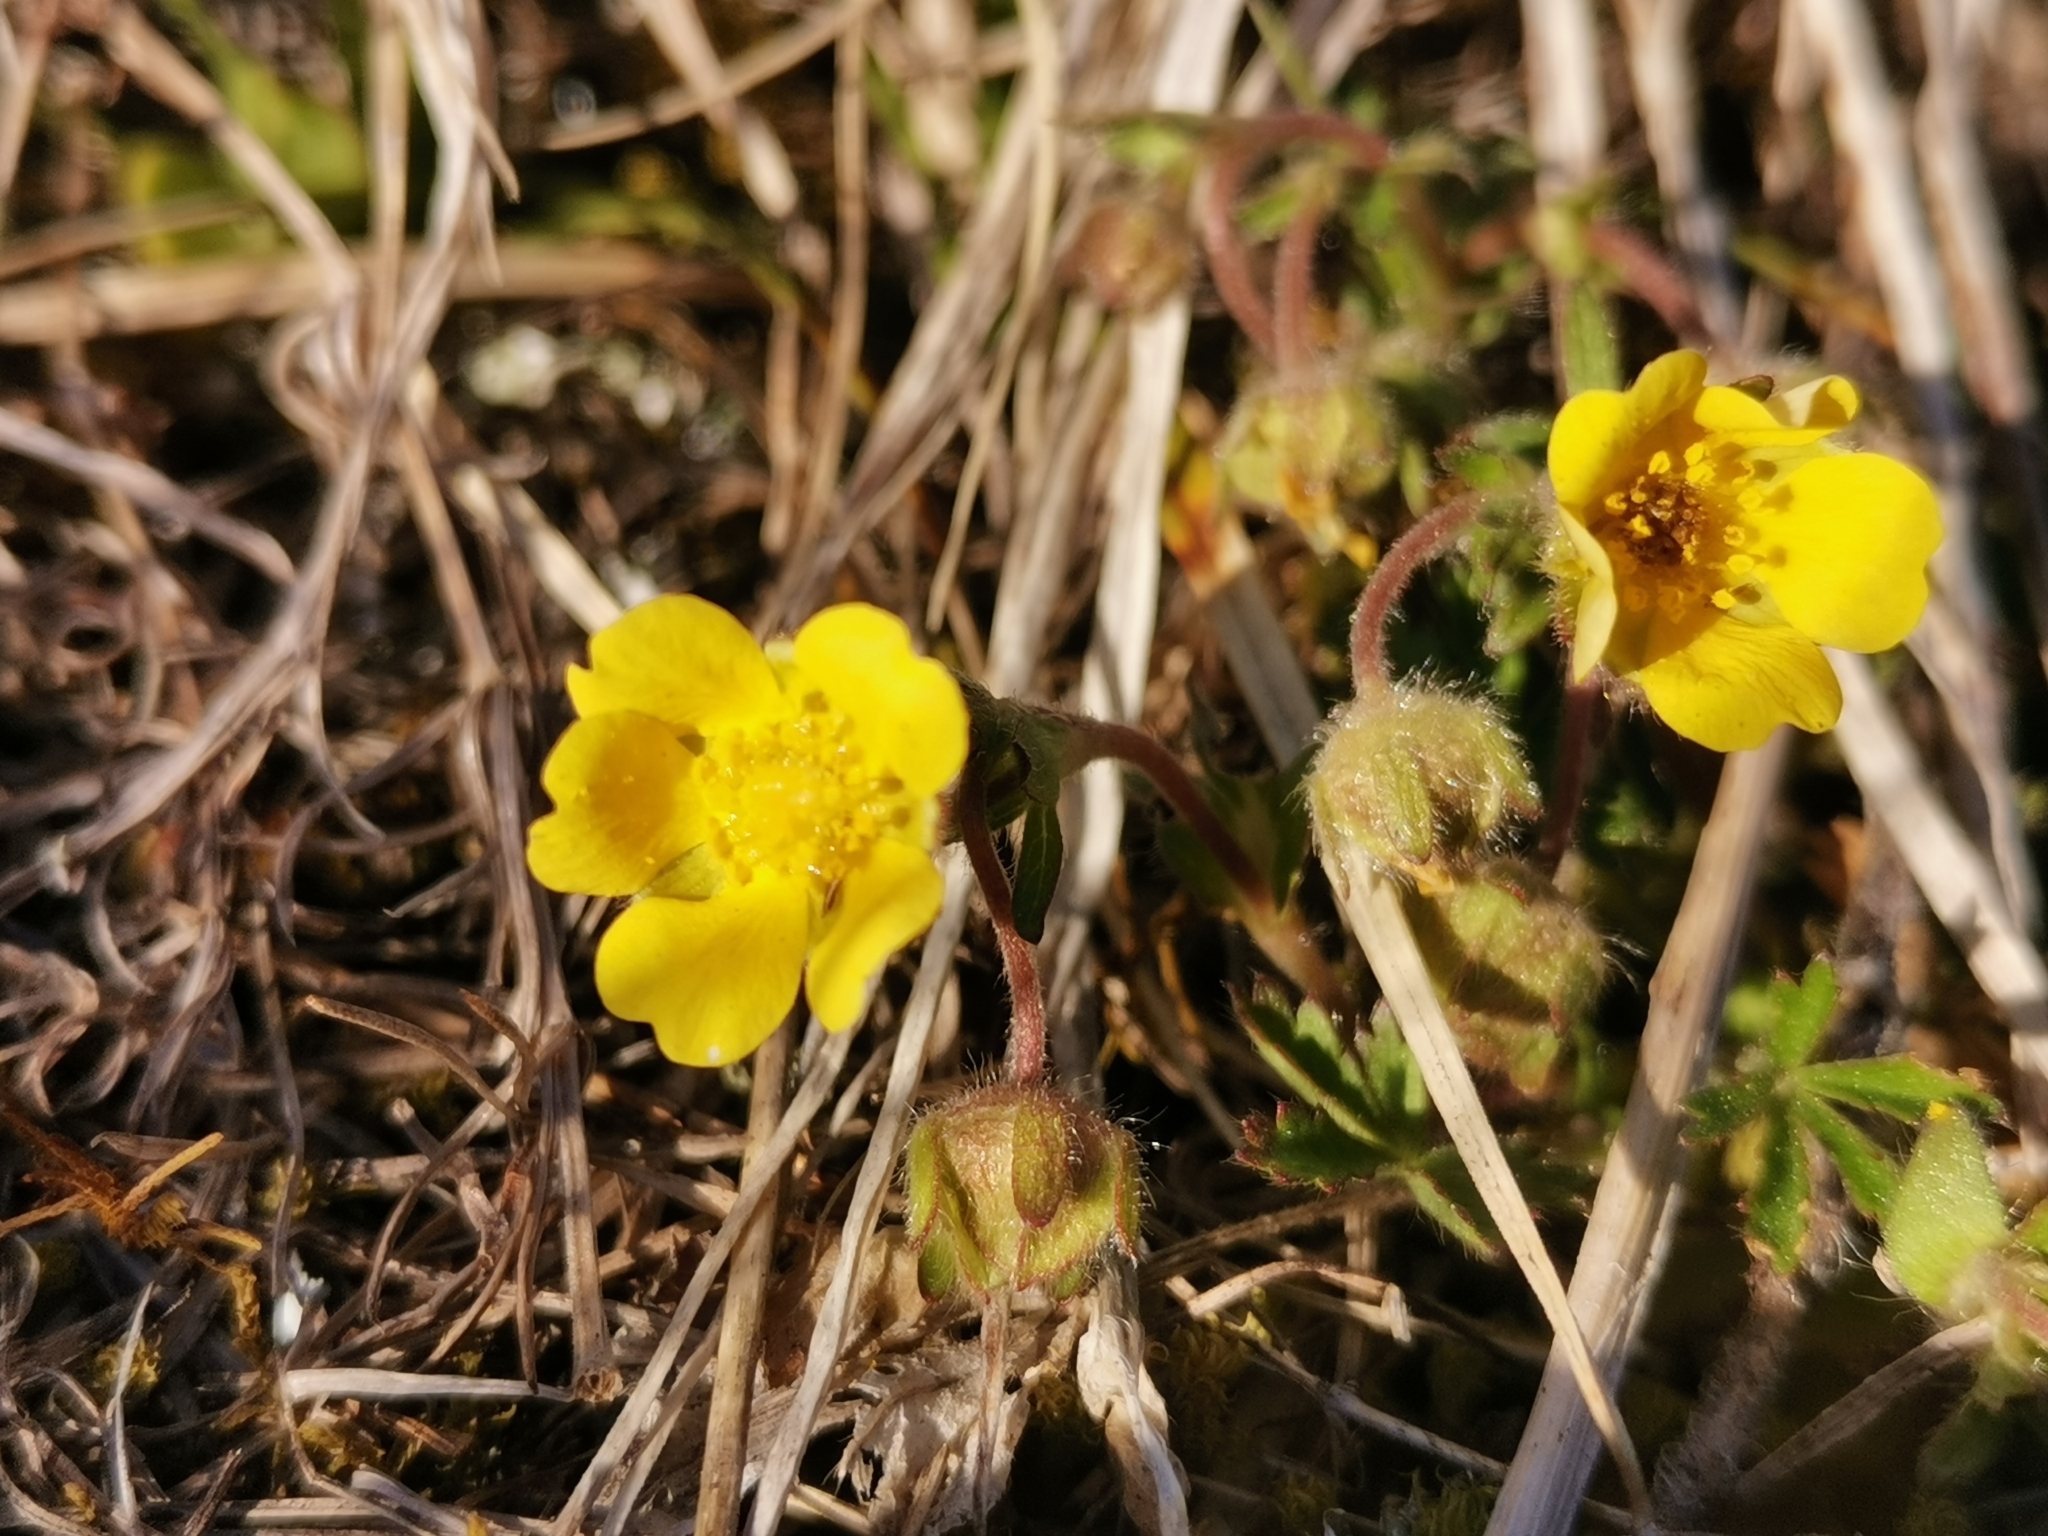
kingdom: Plantae
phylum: Tracheophyta
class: Magnoliopsida
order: Rosales
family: Rosaceae
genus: Potentilla
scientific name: Potentilla pusilla
